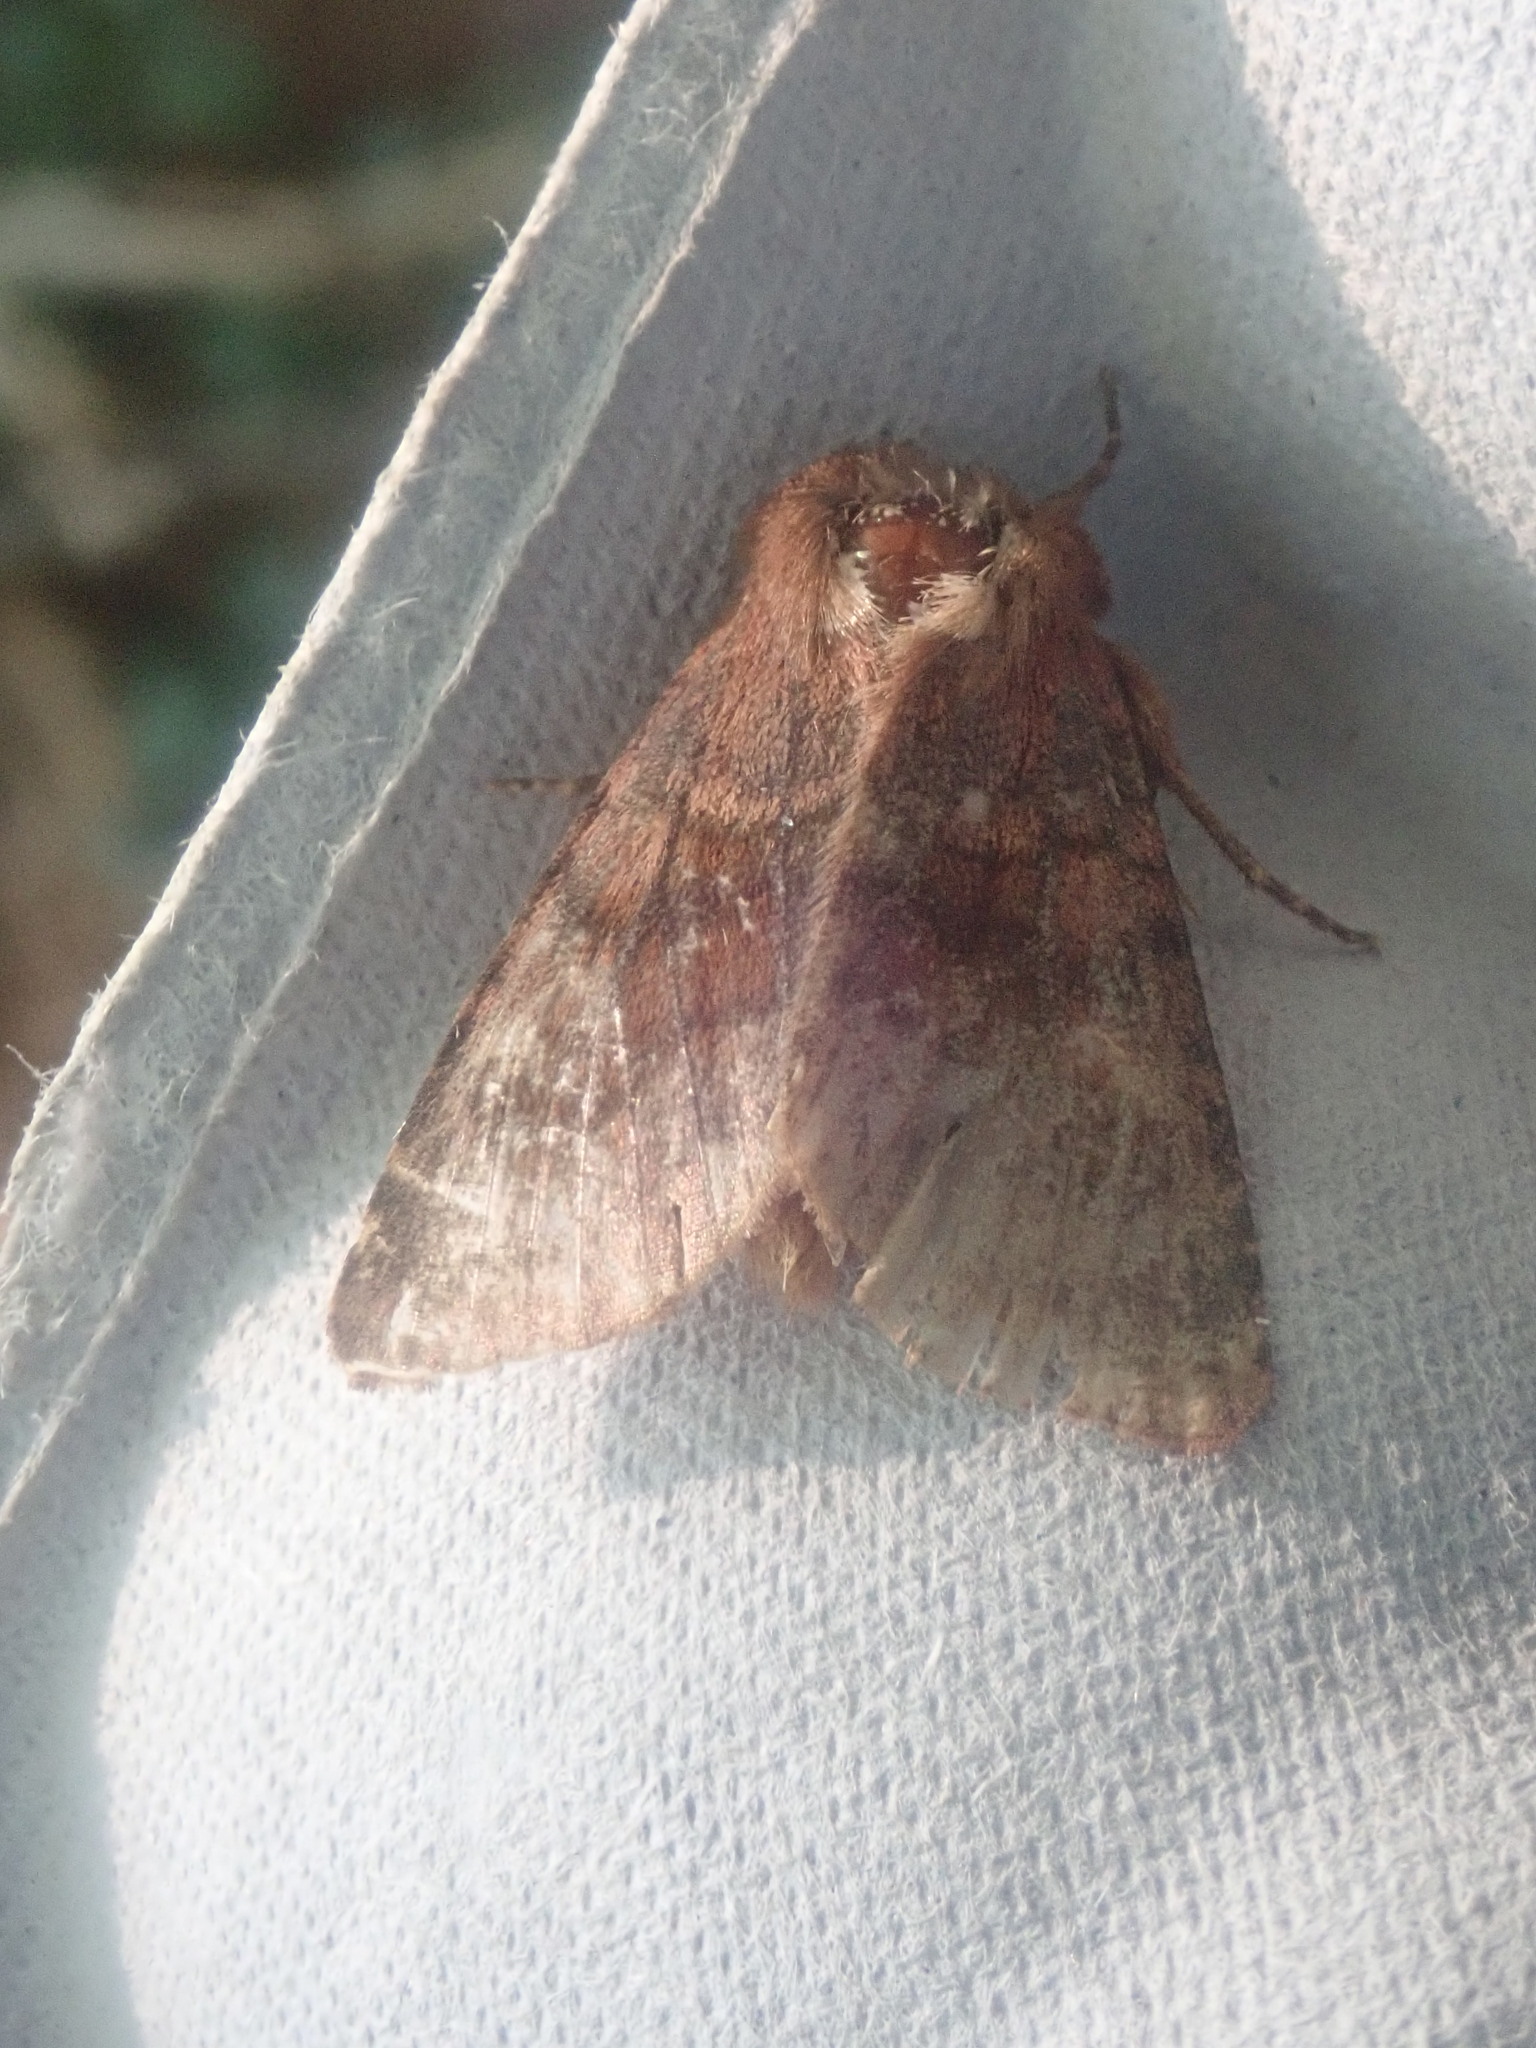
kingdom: Animalia
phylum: Arthropoda
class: Insecta
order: Lepidoptera
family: Noctuidae
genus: Nephelodes
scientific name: Nephelodes minians
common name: Bronzed cutworm
